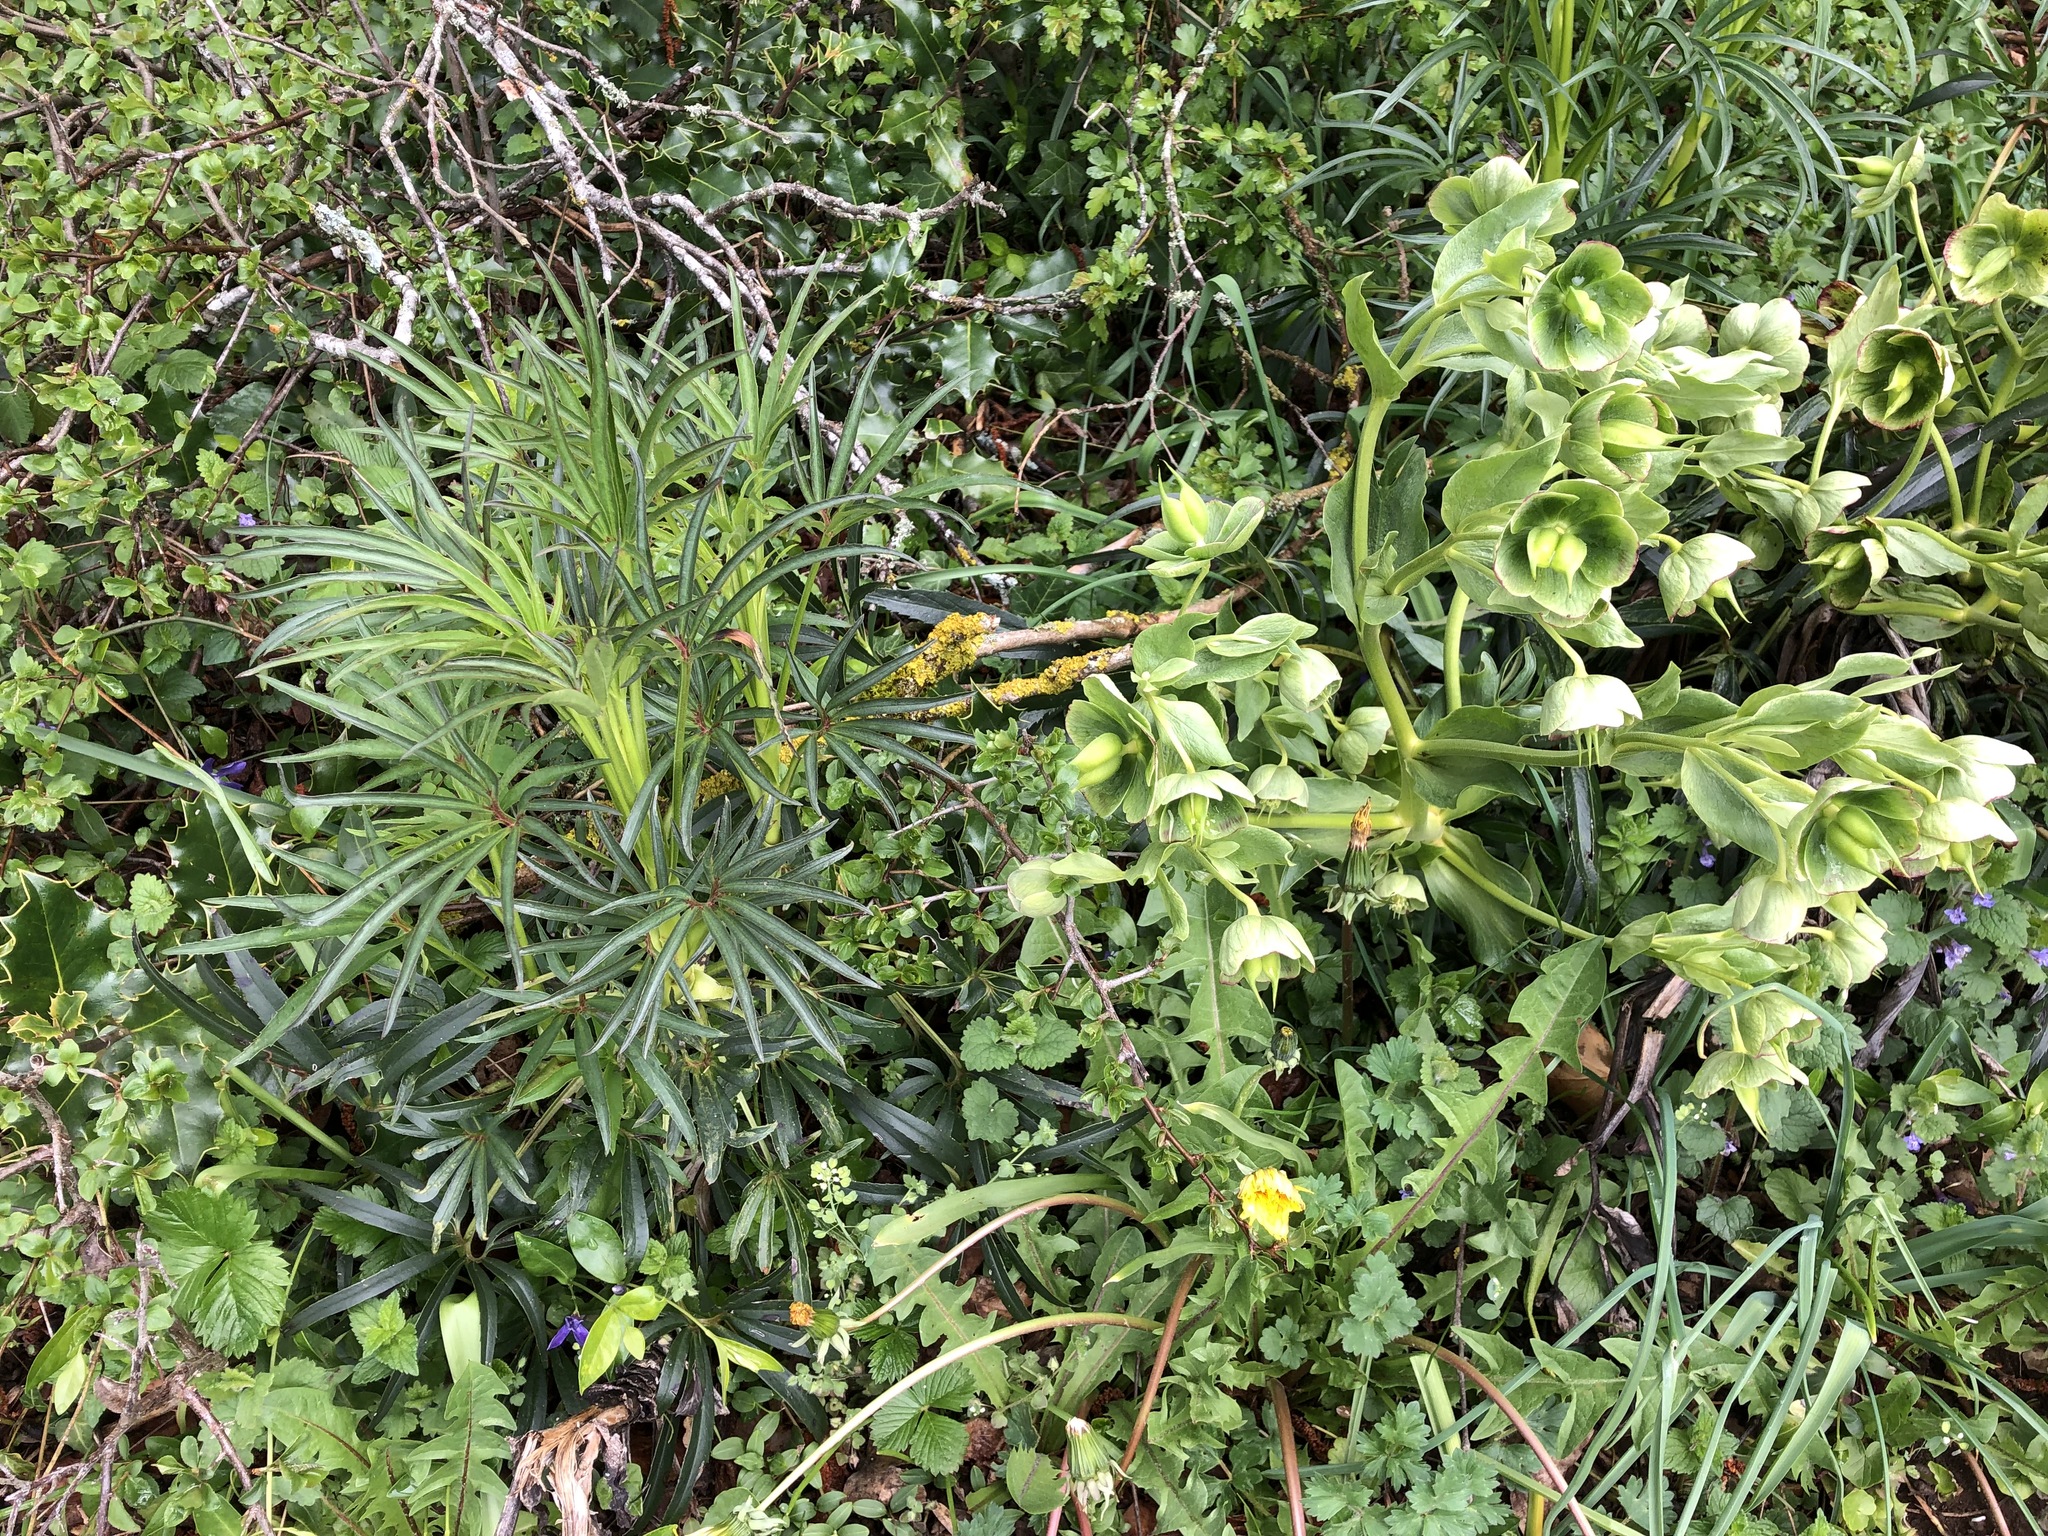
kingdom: Plantae
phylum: Tracheophyta
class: Magnoliopsida
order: Ranunculales
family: Ranunculaceae
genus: Helleborus
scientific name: Helleborus foetidus
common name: Stinking hellebore
